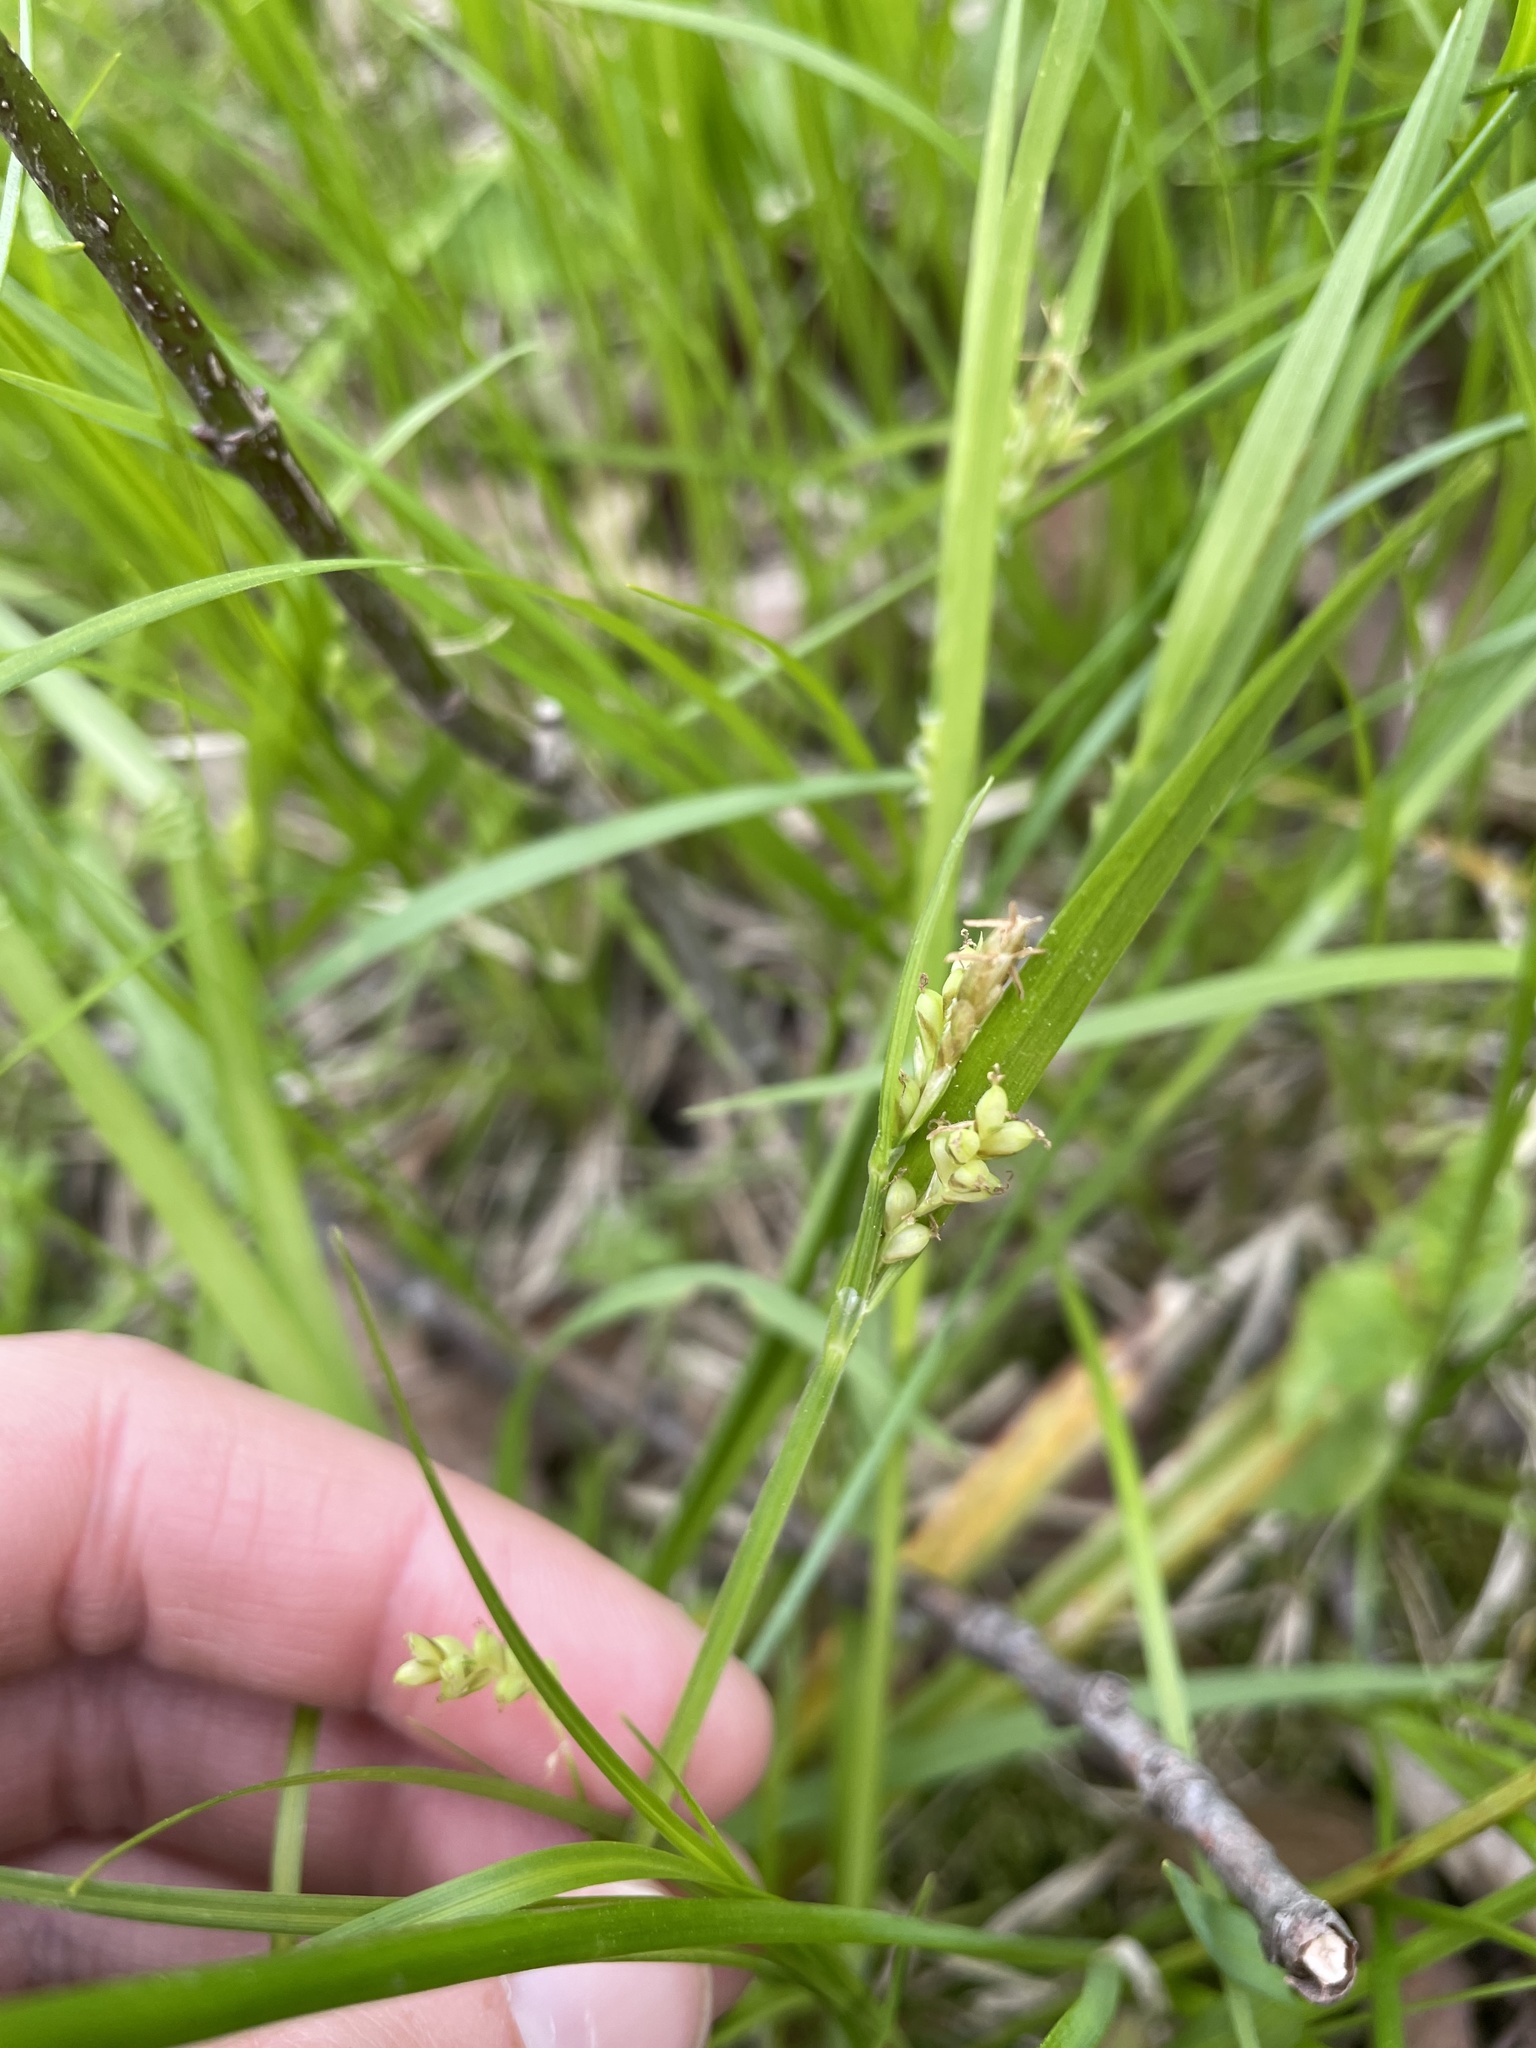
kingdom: Plantae
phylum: Tracheophyta
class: Liliopsida
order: Poales
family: Cyperaceae
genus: Carex
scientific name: Carex aurea
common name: Golden sedge
